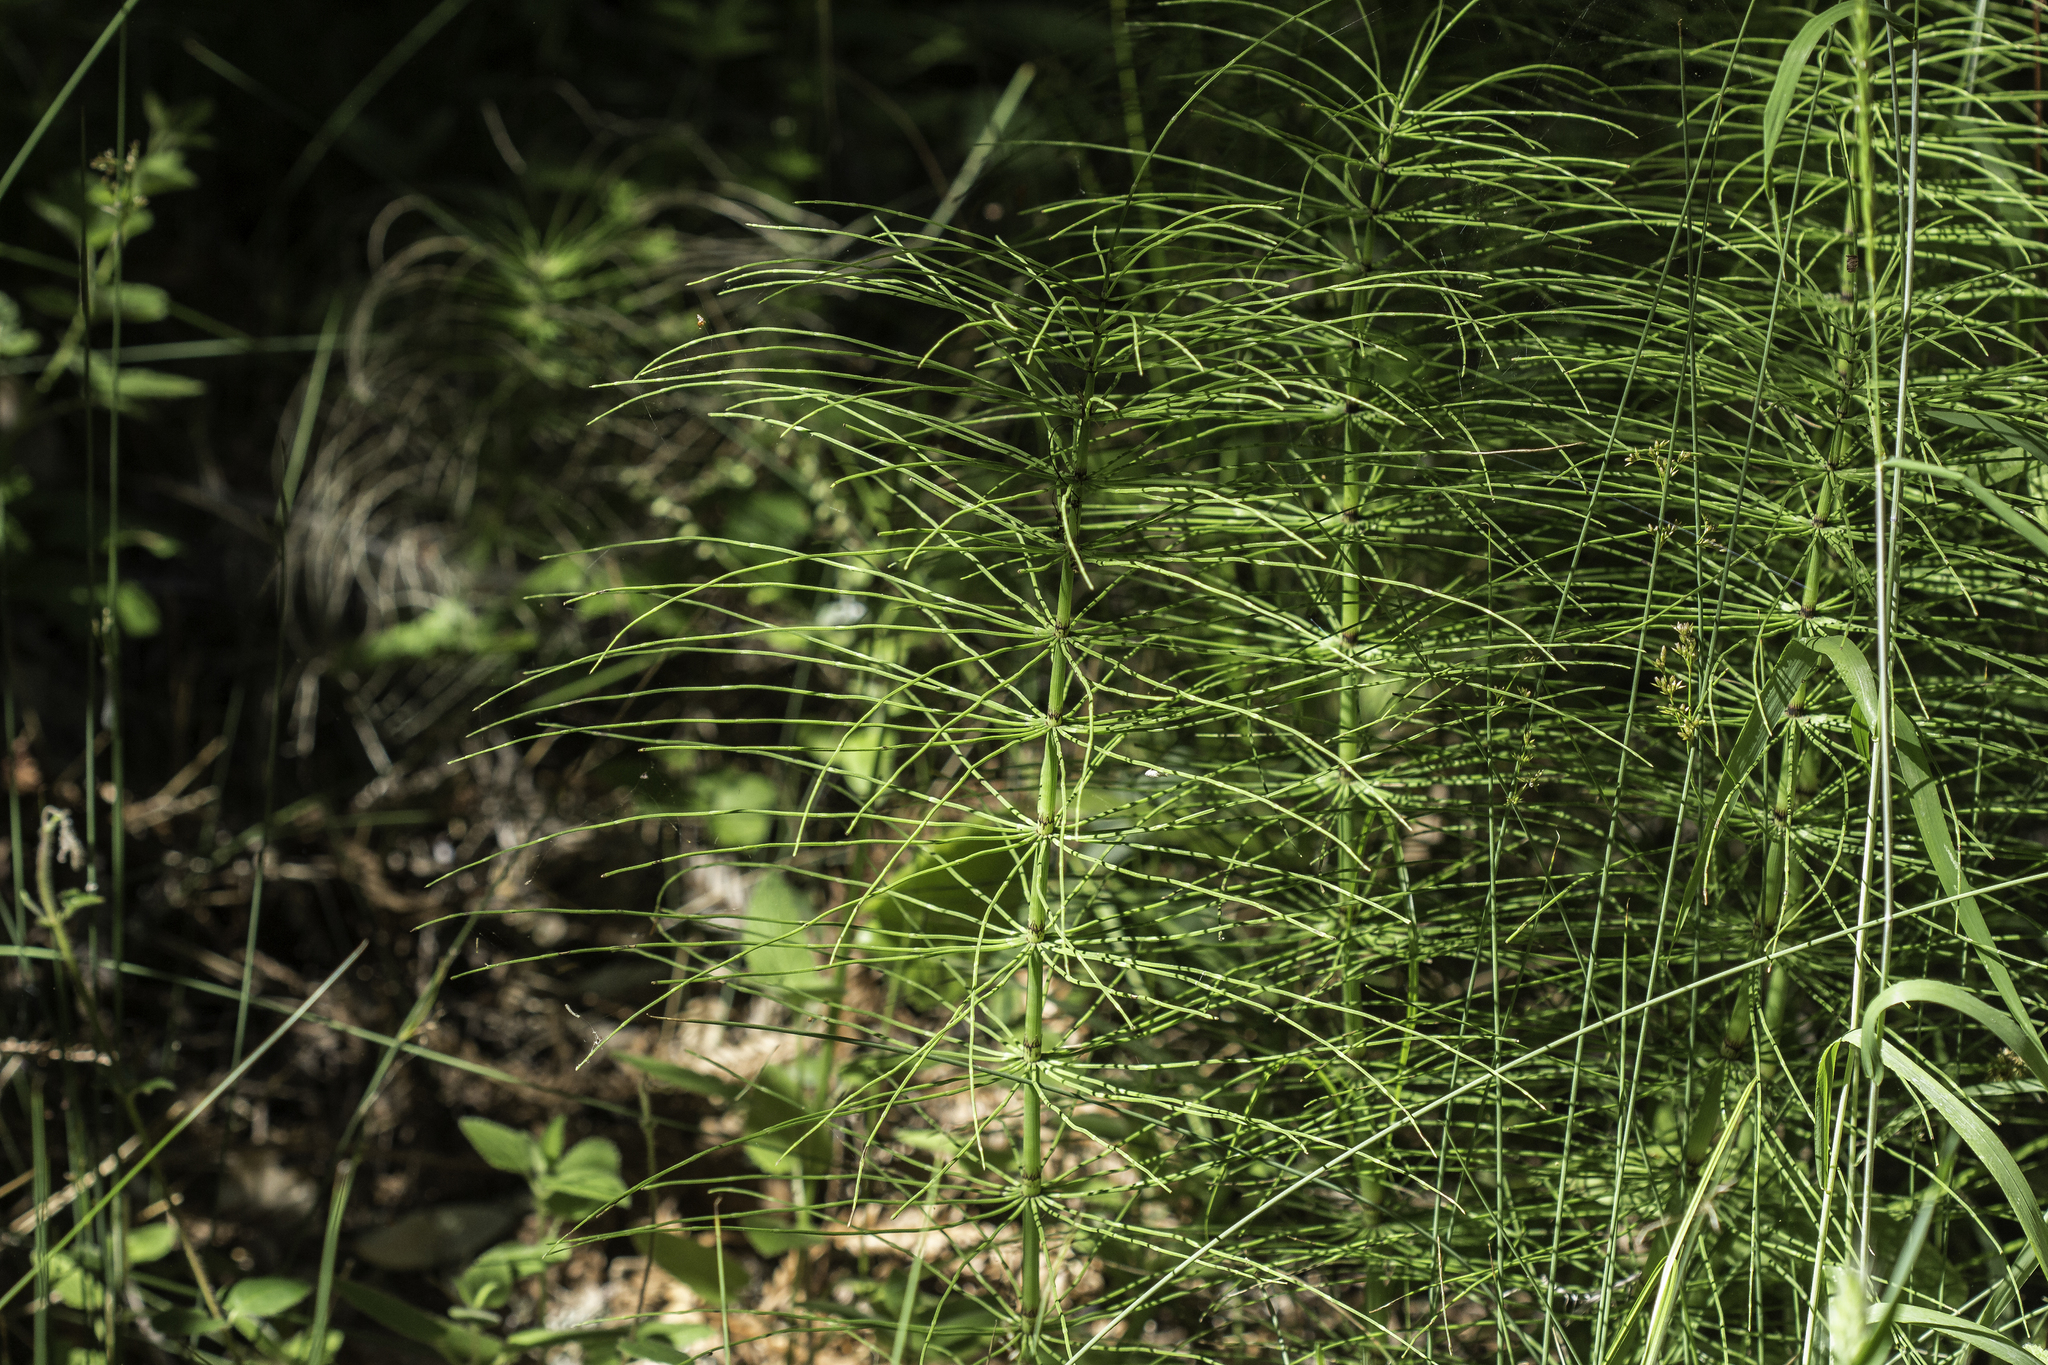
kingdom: Plantae
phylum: Tracheophyta
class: Polypodiopsida
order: Equisetales
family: Equisetaceae
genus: Equisetum
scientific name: Equisetum telmateia
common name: Great horsetail
